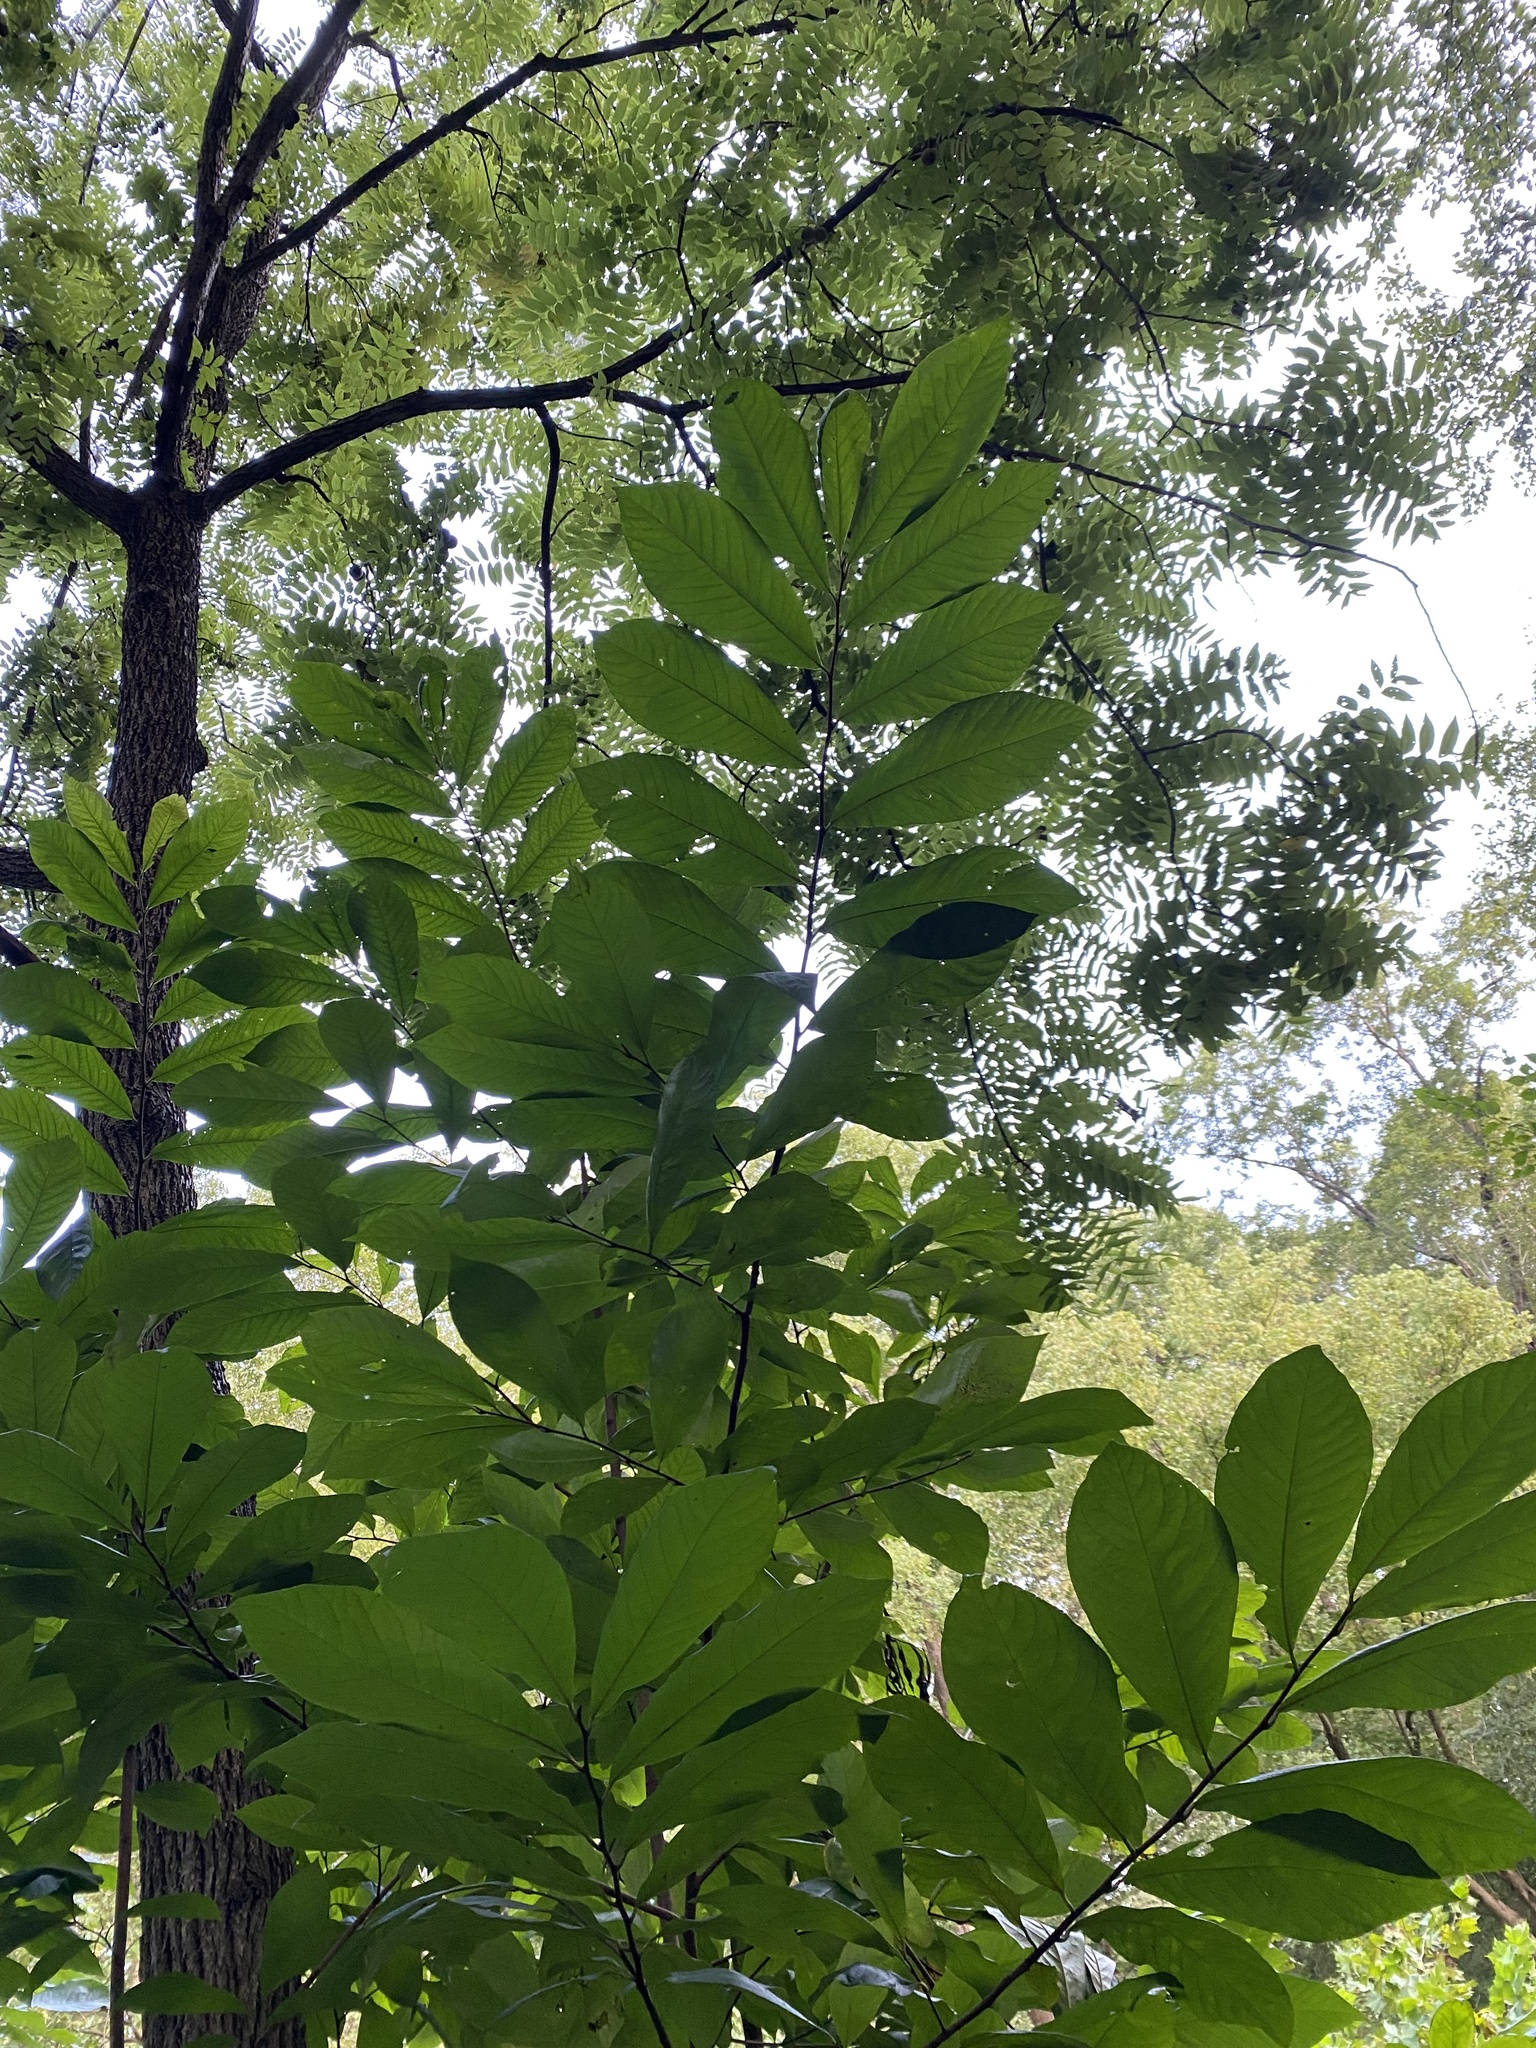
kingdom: Plantae
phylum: Tracheophyta
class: Magnoliopsida
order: Magnoliales
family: Annonaceae
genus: Asimina
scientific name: Asimina triloba
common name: Dog-banana
